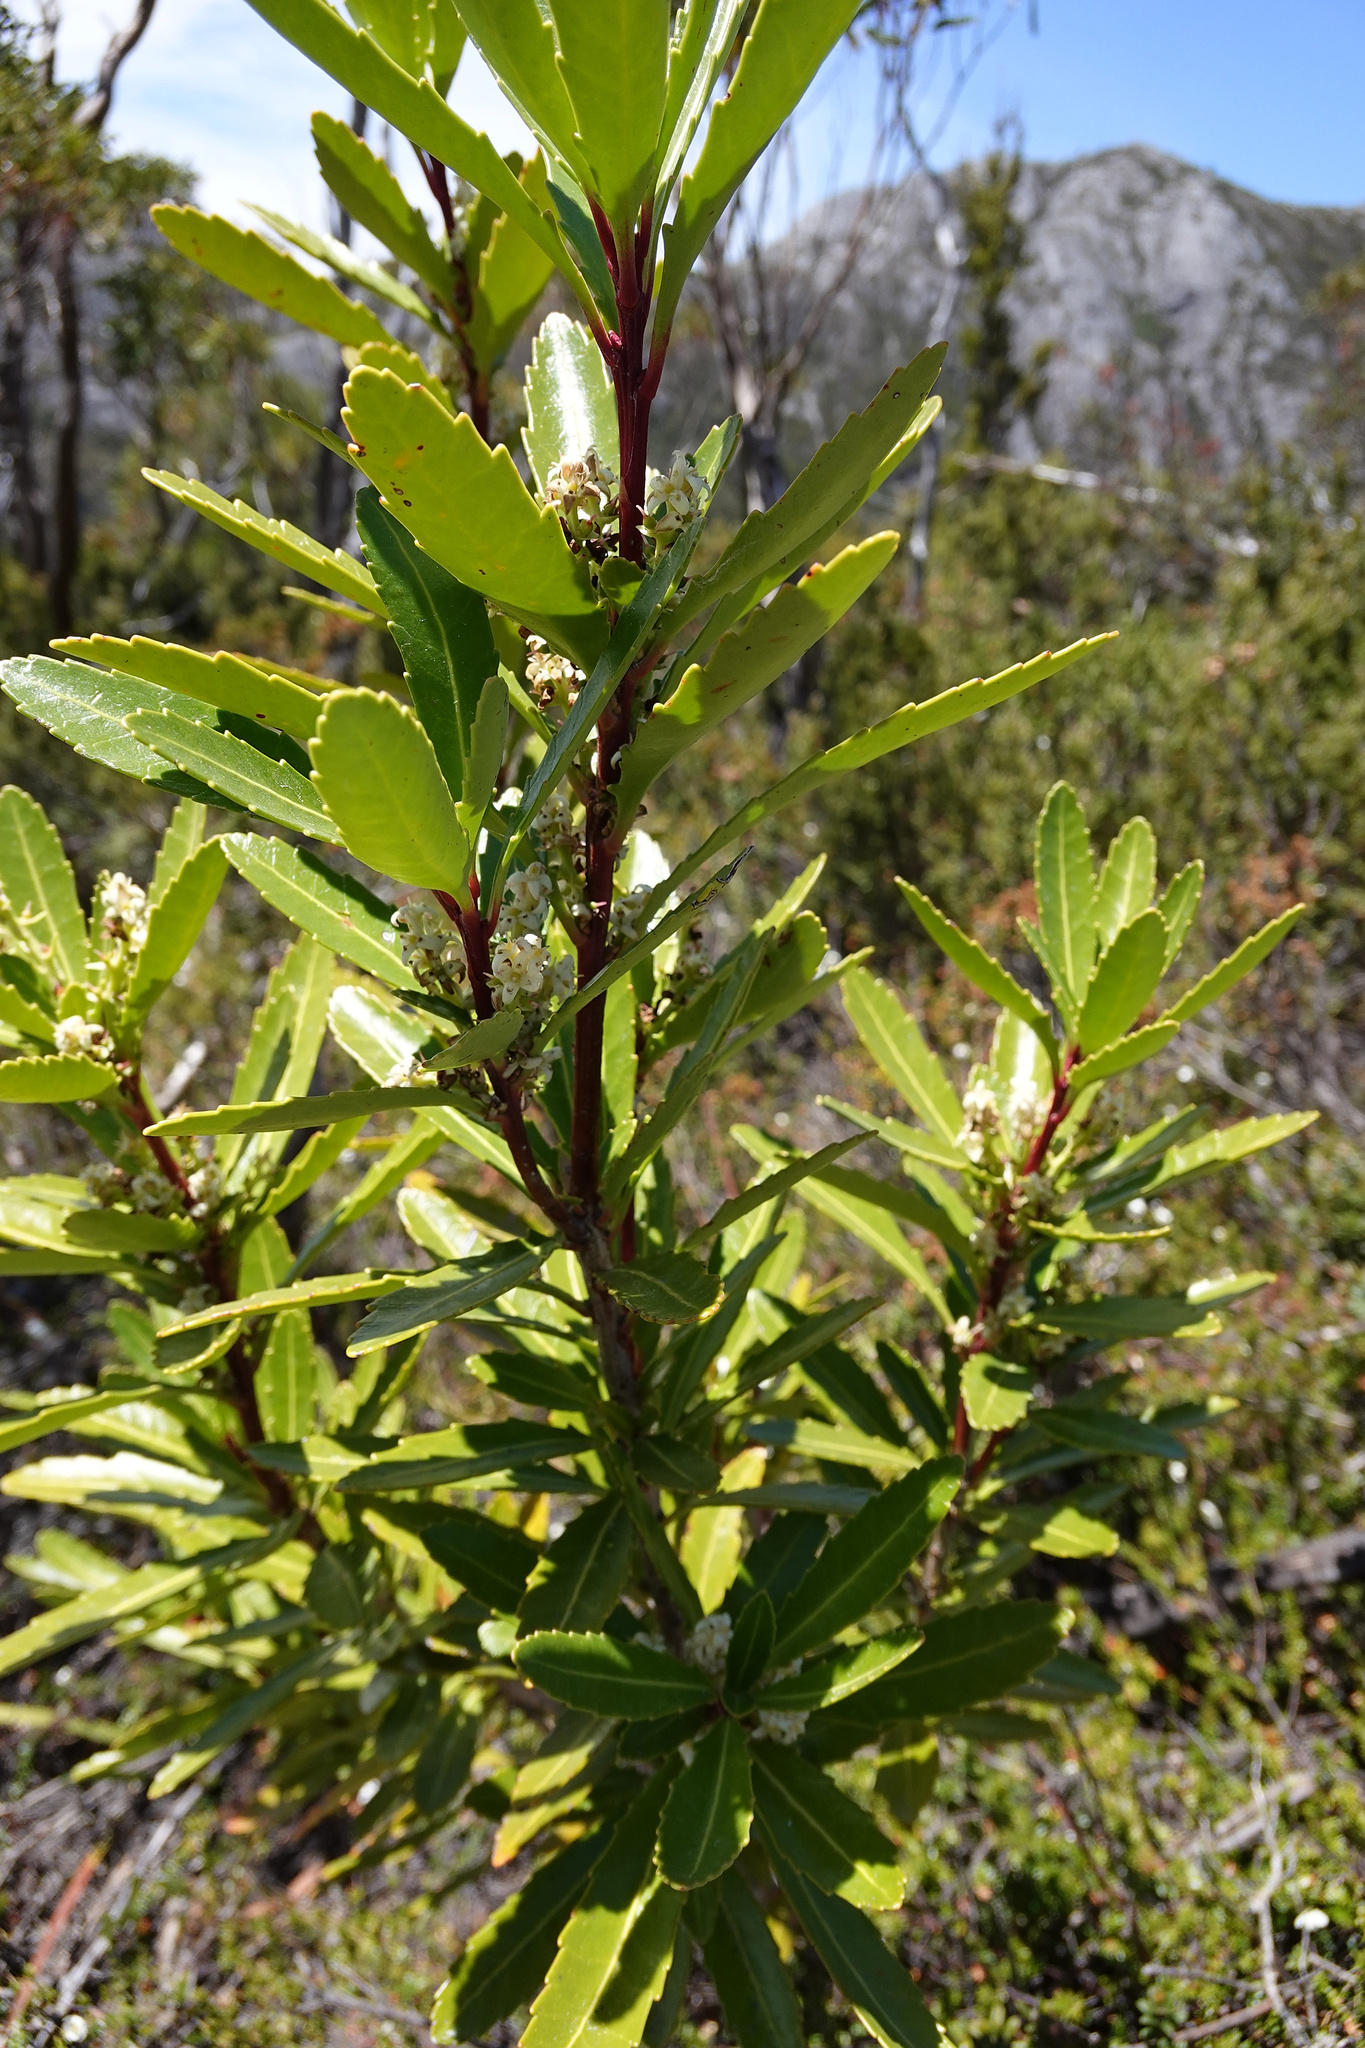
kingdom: Plantae
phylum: Tracheophyta
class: Magnoliopsida
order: Proteales
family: Proteaceae
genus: Cenarrhenes
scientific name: Cenarrhenes nitida
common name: Native plum
